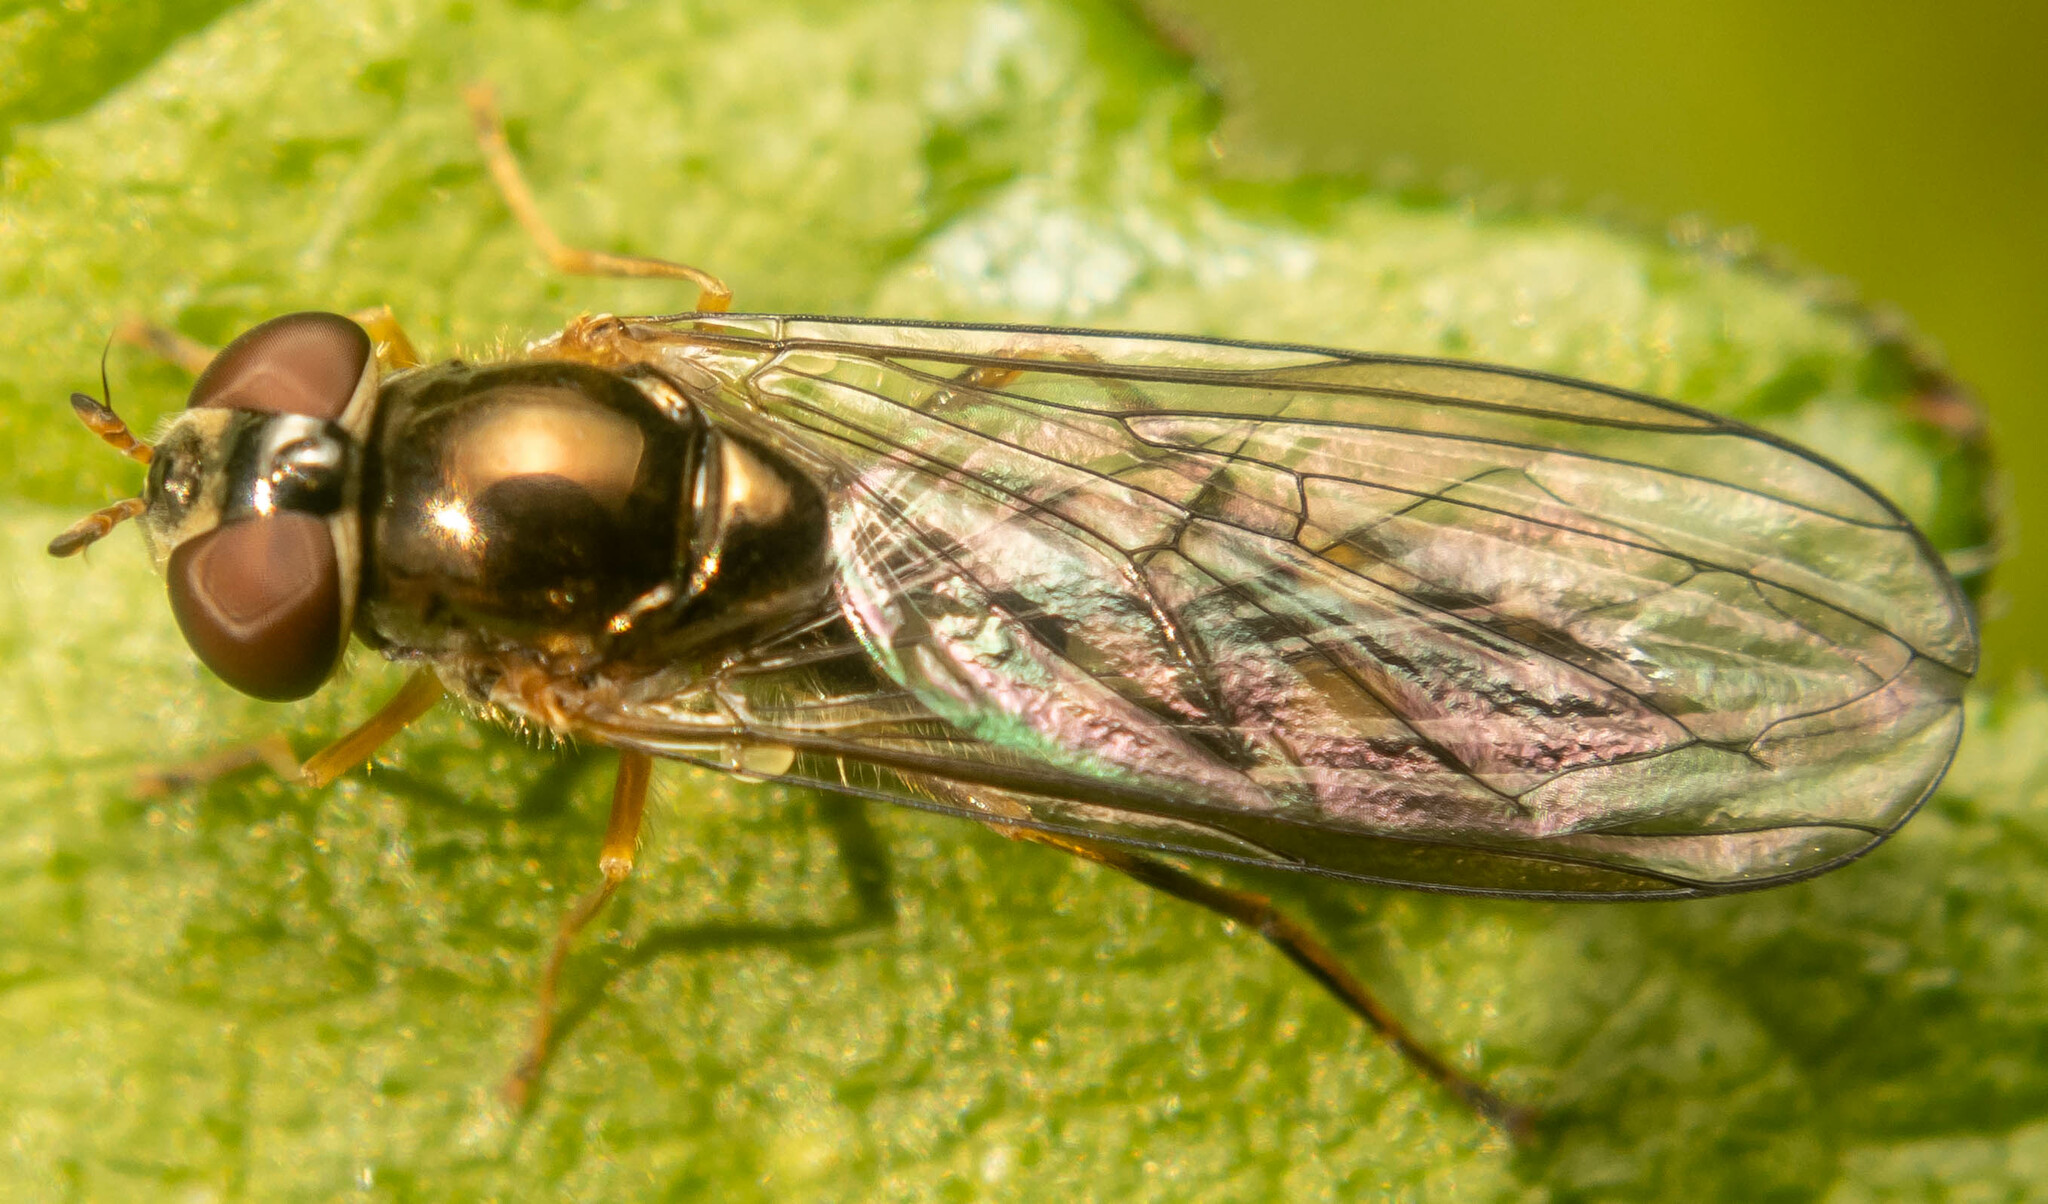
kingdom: Animalia
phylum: Arthropoda
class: Insecta
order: Diptera
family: Syrphidae
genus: Melanostoma
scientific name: Melanostoma scalare
